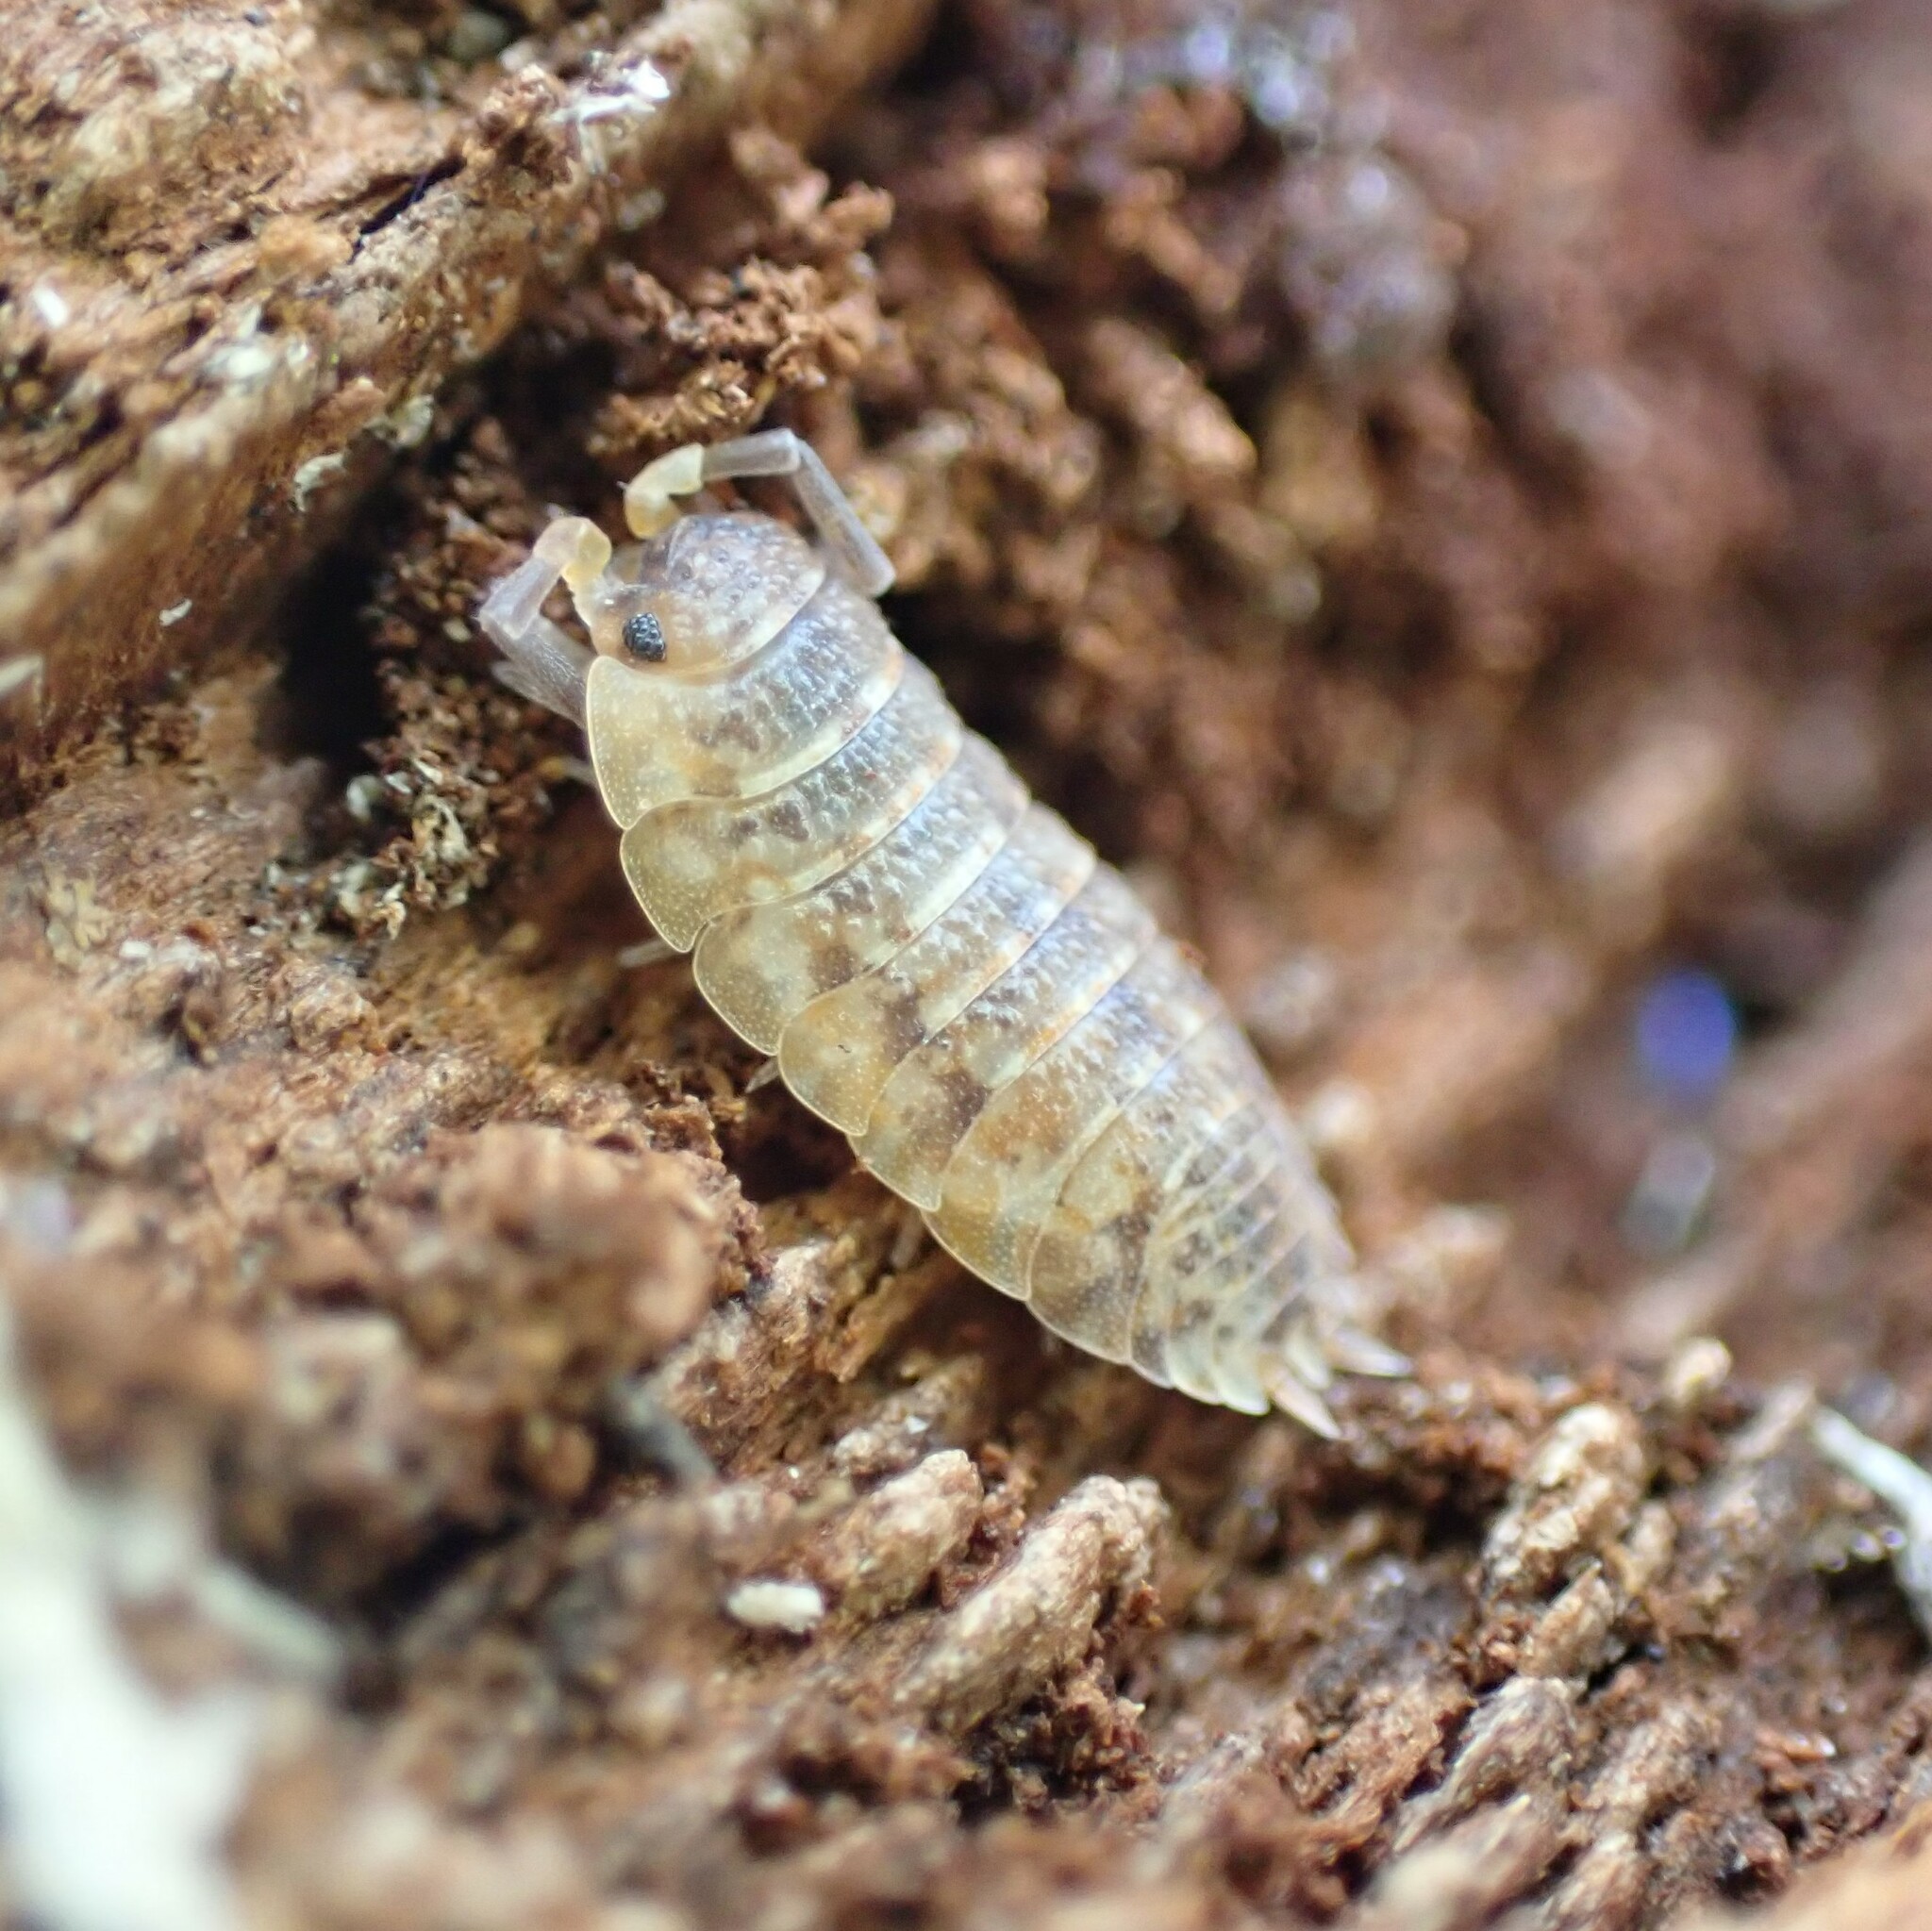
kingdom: Animalia
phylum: Arthropoda
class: Malacostraca
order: Isopoda
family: Porcellionidae
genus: Porcellio
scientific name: Porcellio scaber
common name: Common rough woodlouse
